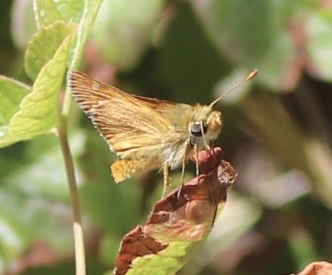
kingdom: Animalia
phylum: Arthropoda
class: Insecta
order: Lepidoptera
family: Hesperiidae
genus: Ochlodes
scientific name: Ochlodes agricola
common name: Rural skipper
